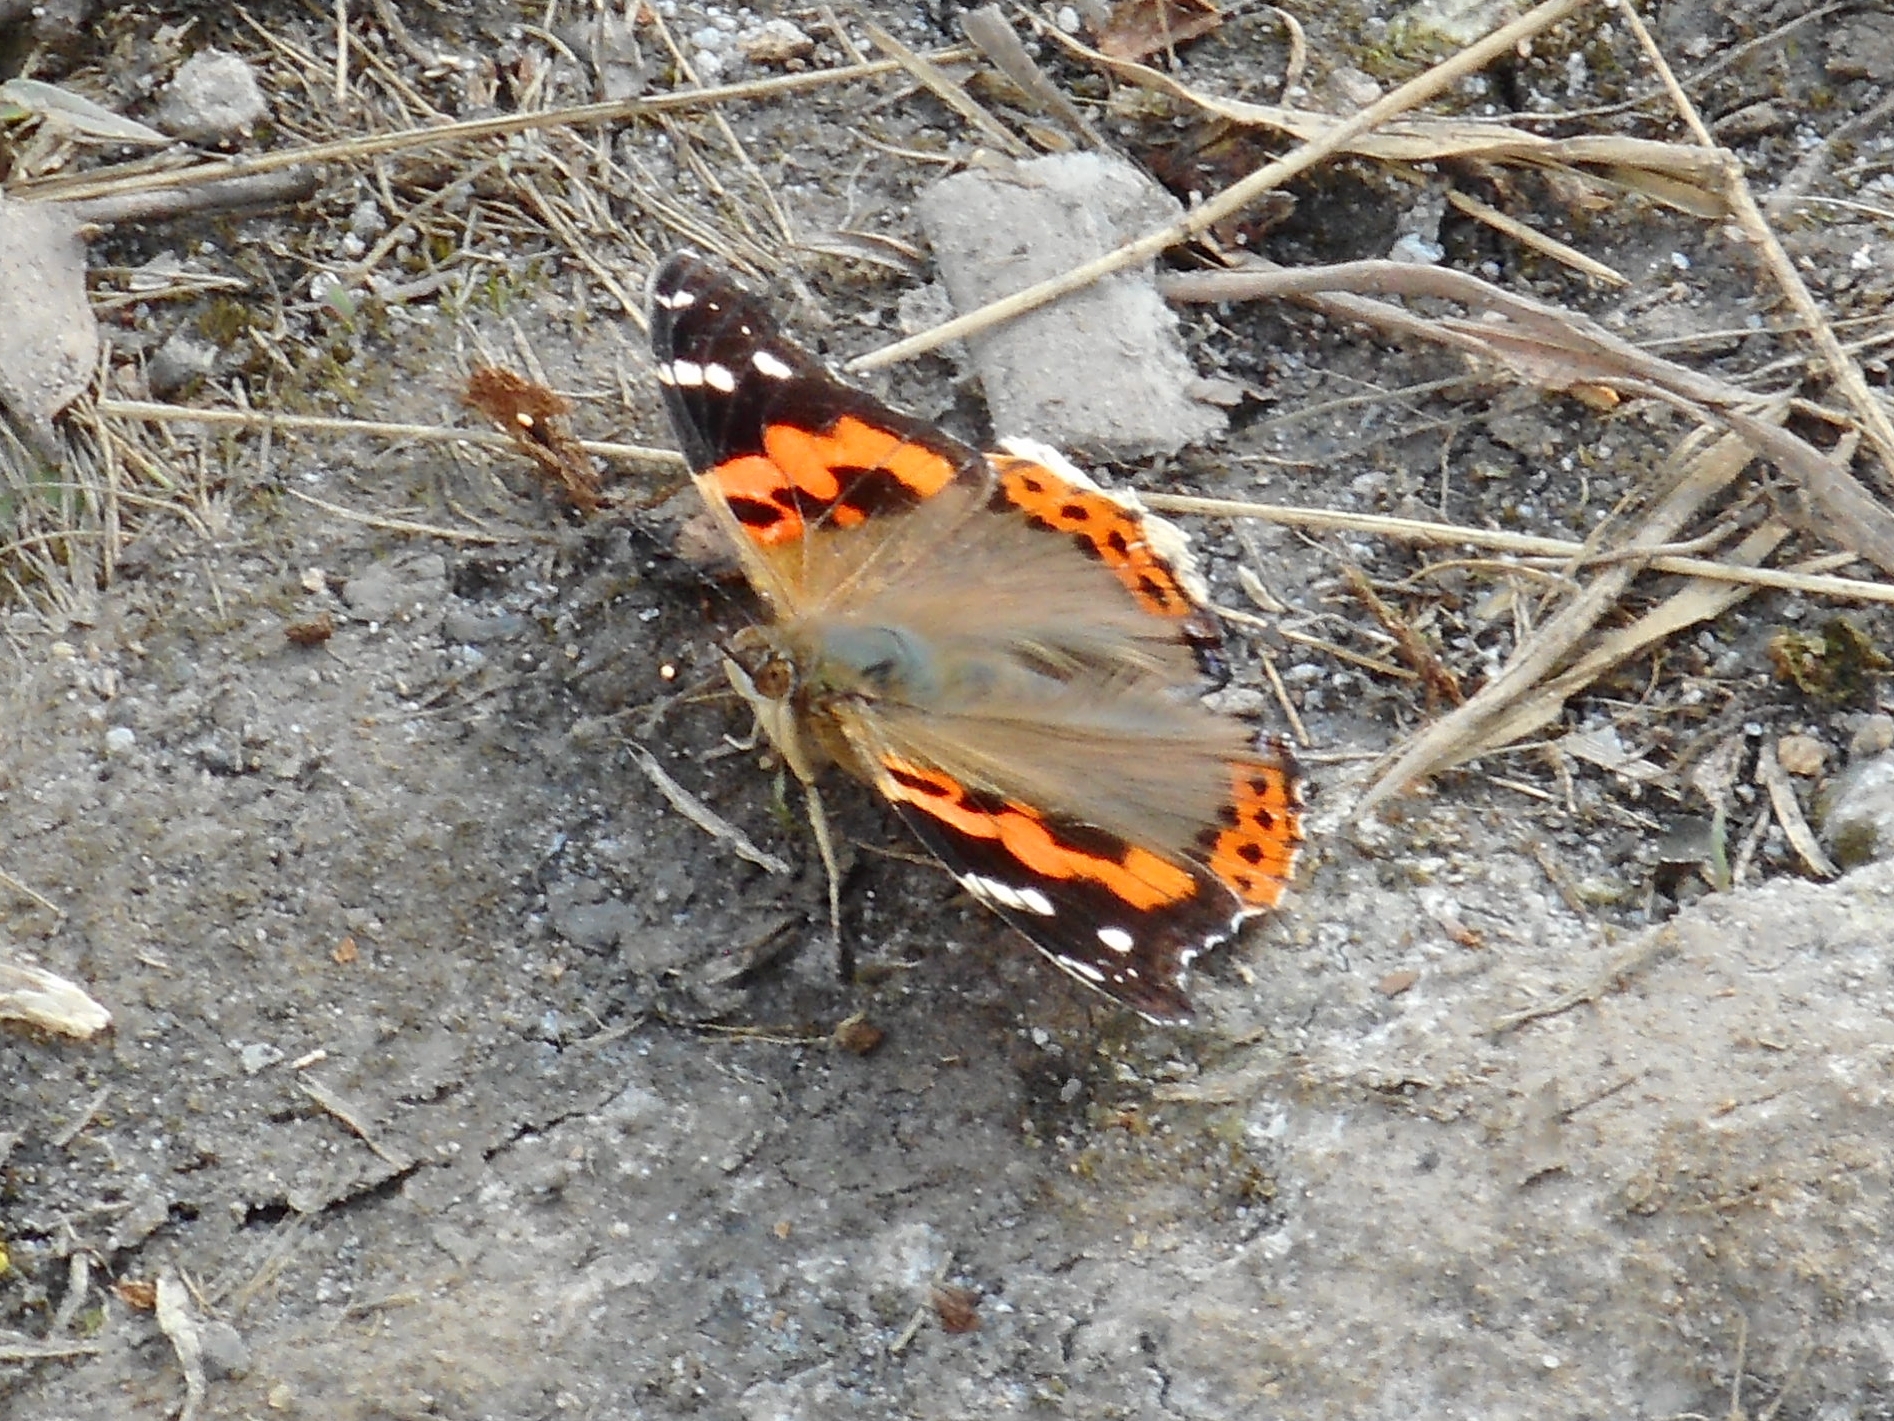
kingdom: Animalia
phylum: Arthropoda
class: Insecta
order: Lepidoptera
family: Nymphalidae
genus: Vanessa
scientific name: Vanessa indica
